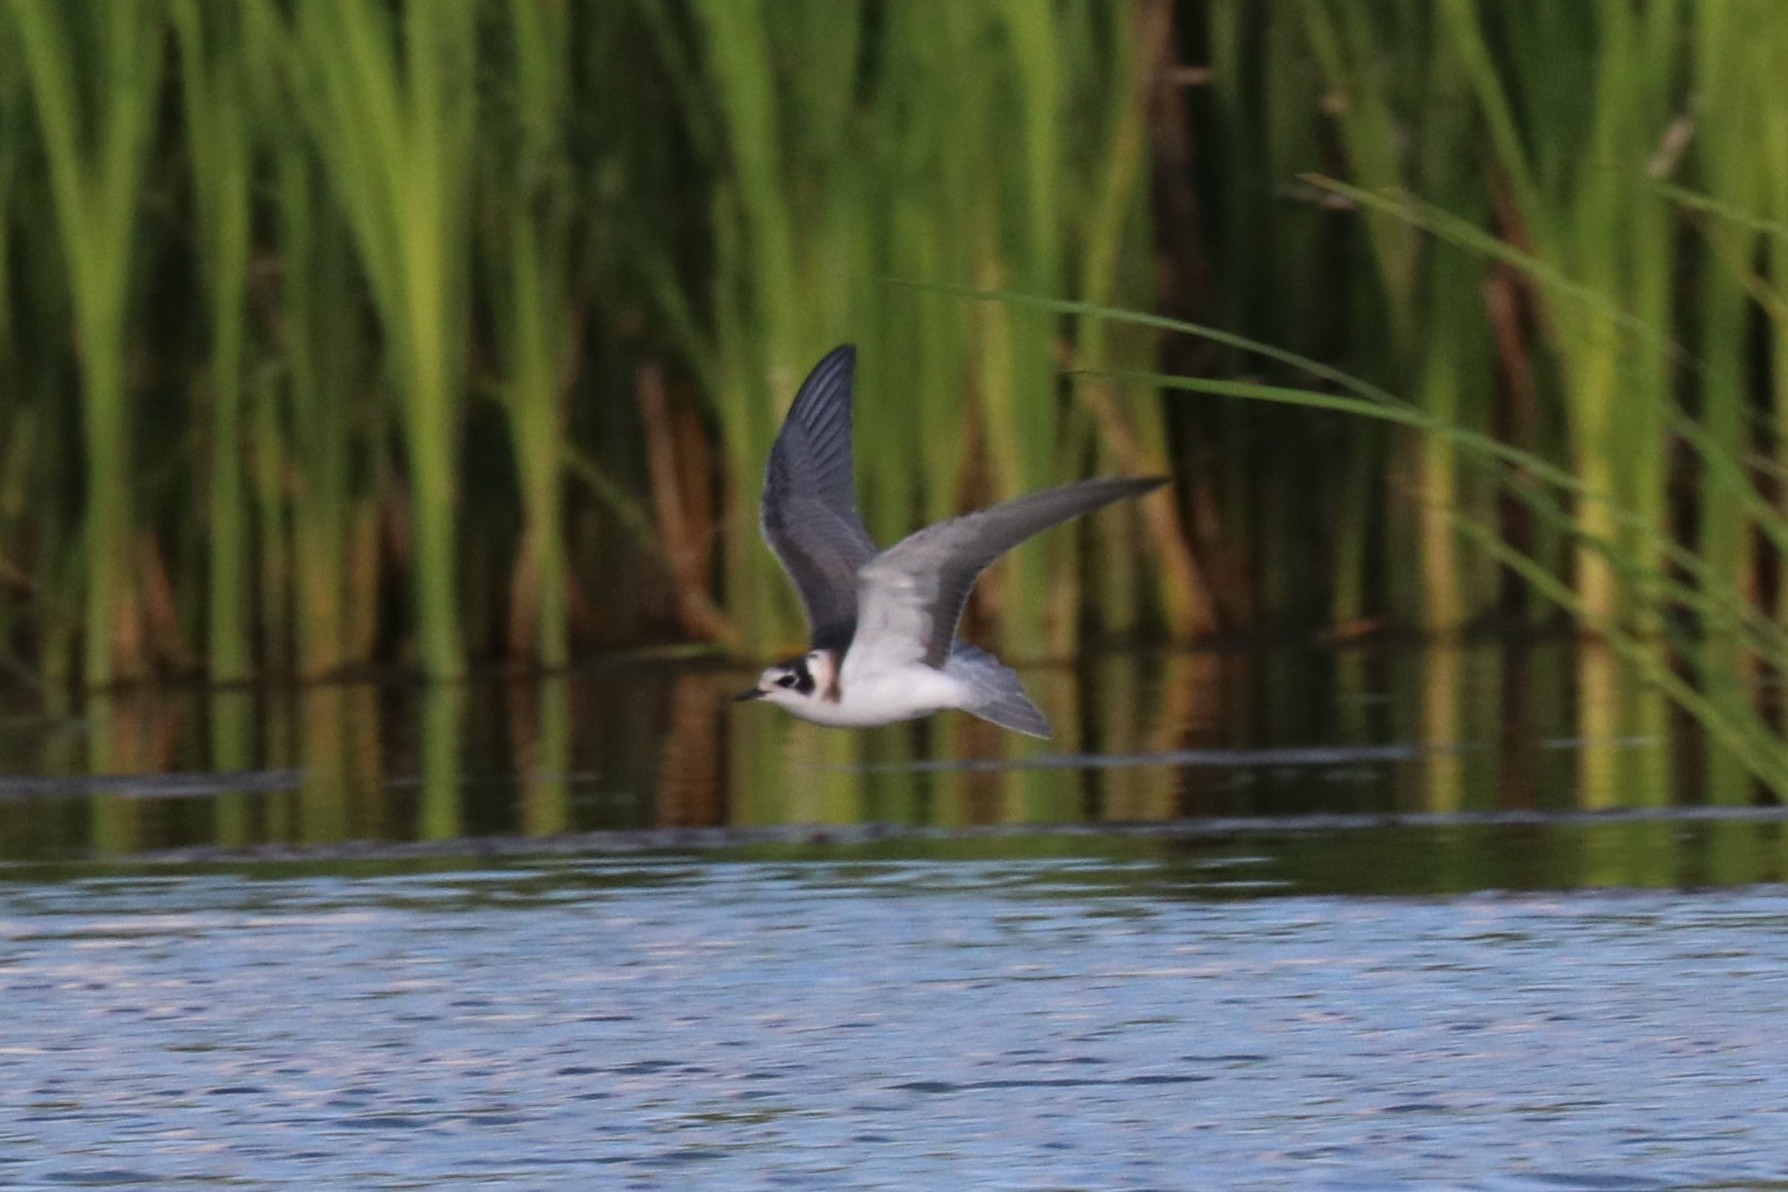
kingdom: Animalia
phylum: Chordata
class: Aves
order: Charadriiformes
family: Laridae
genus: Chlidonias
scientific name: Chlidonias niger
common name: Black tern
